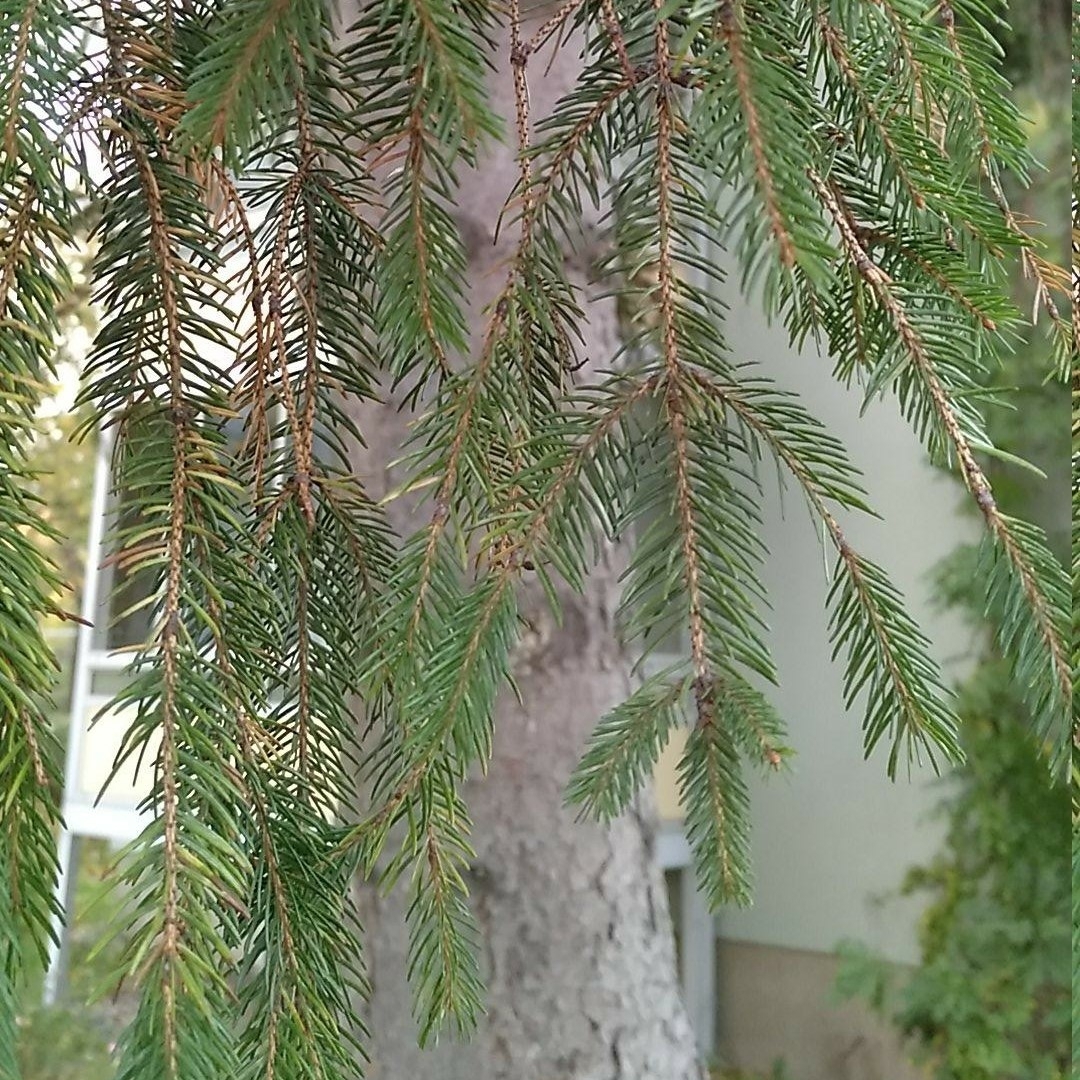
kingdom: Plantae
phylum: Tracheophyta
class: Pinopsida
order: Pinales
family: Pinaceae
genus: Picea
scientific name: Picea abies
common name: Norway spruce
